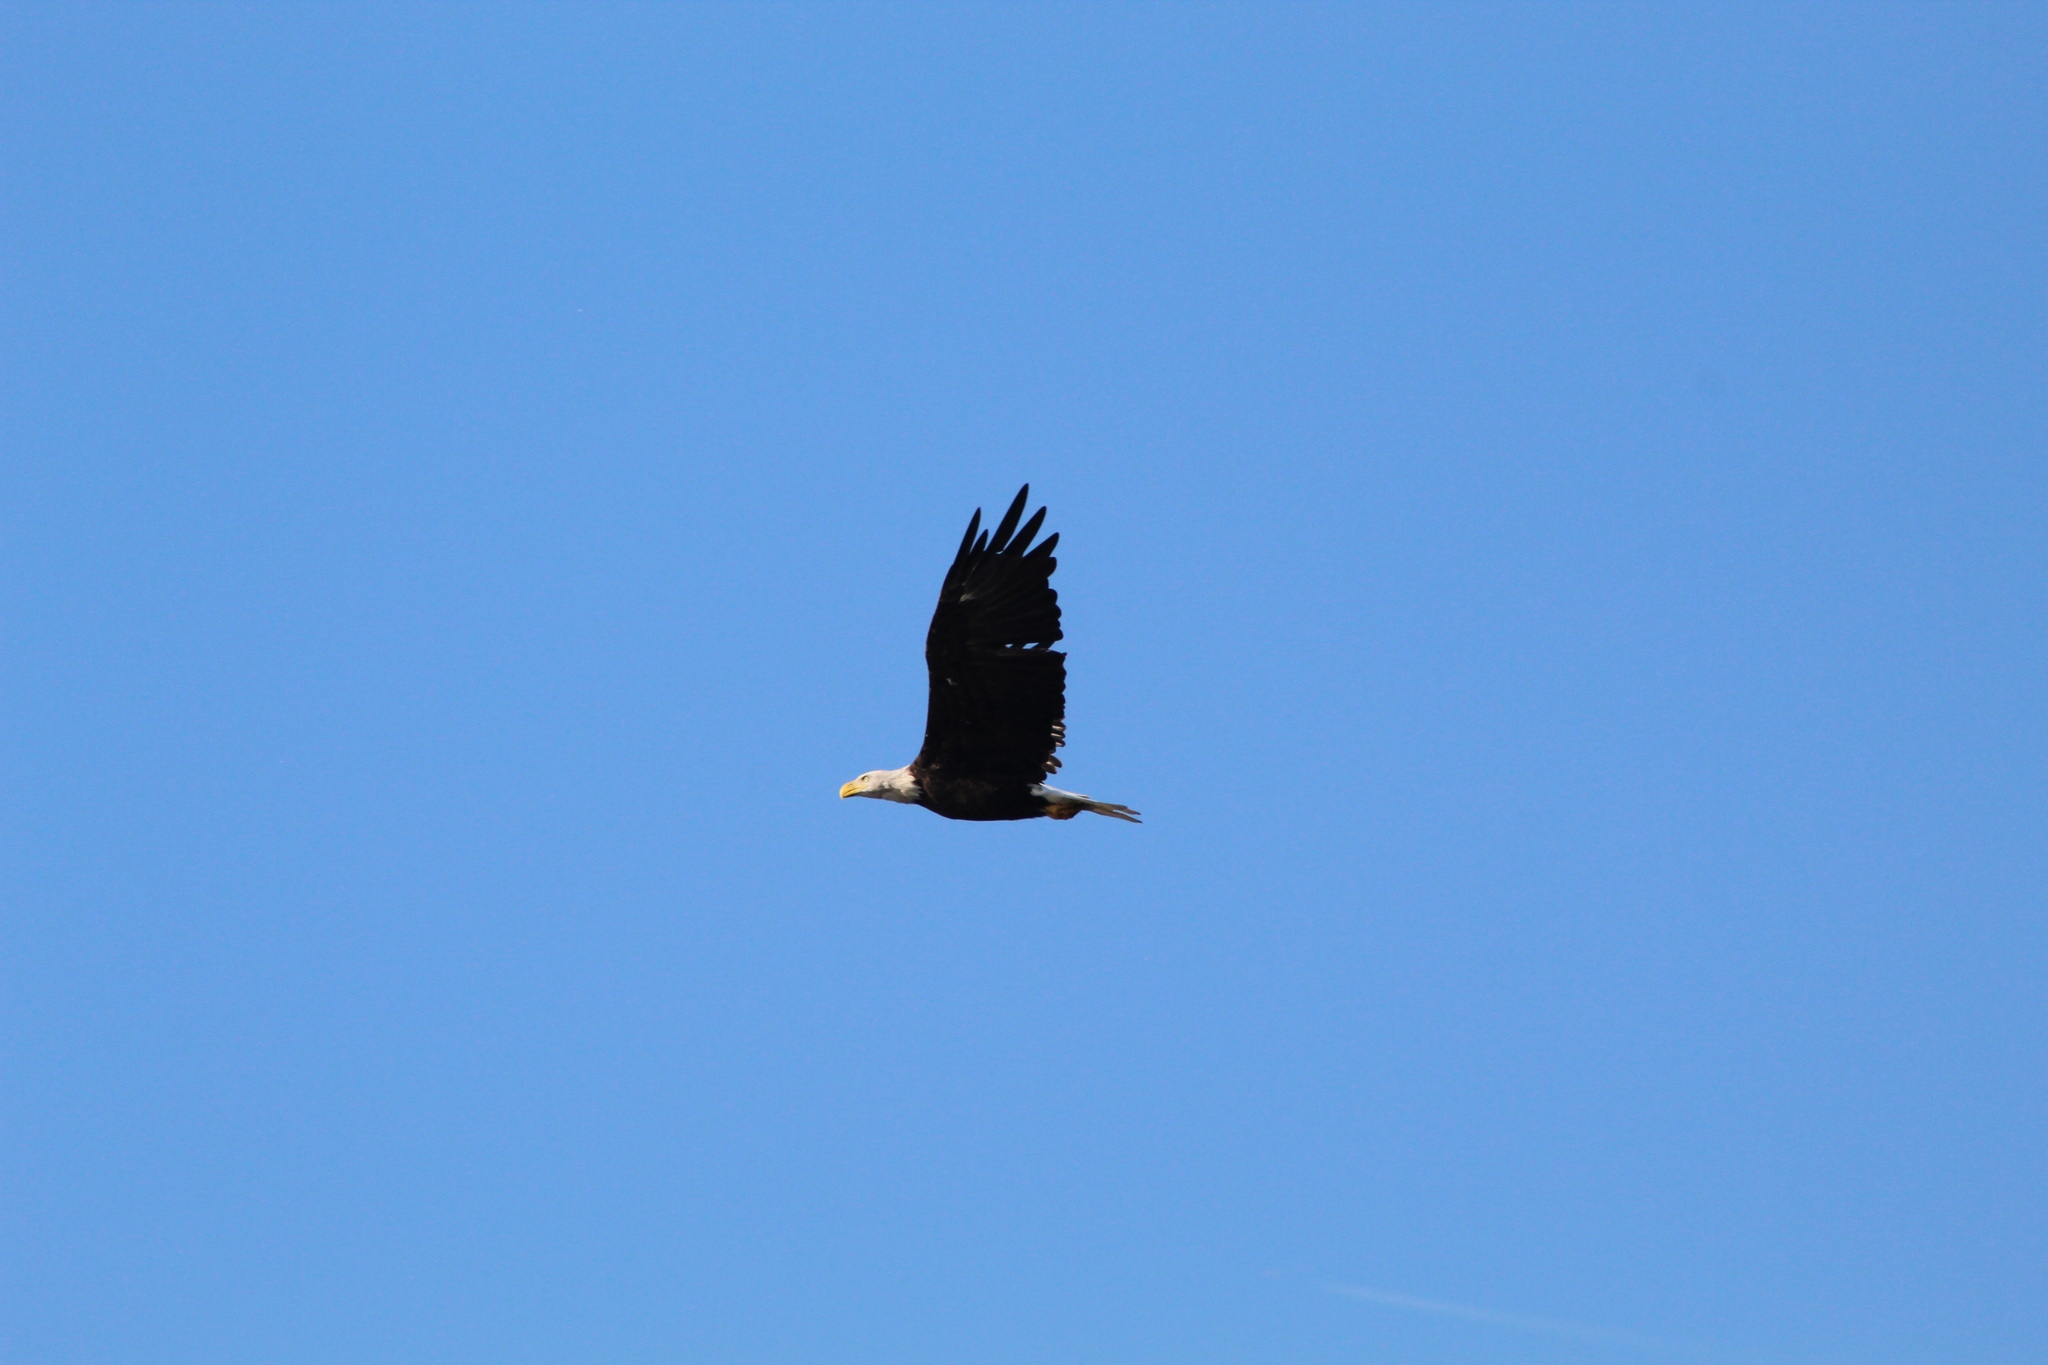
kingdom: Animalia
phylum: Chordata
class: Aves
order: Accipitriformes
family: Accipitridae
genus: Haliaeetus
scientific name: Haliaeetus leucocephalus
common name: Bald eagle
